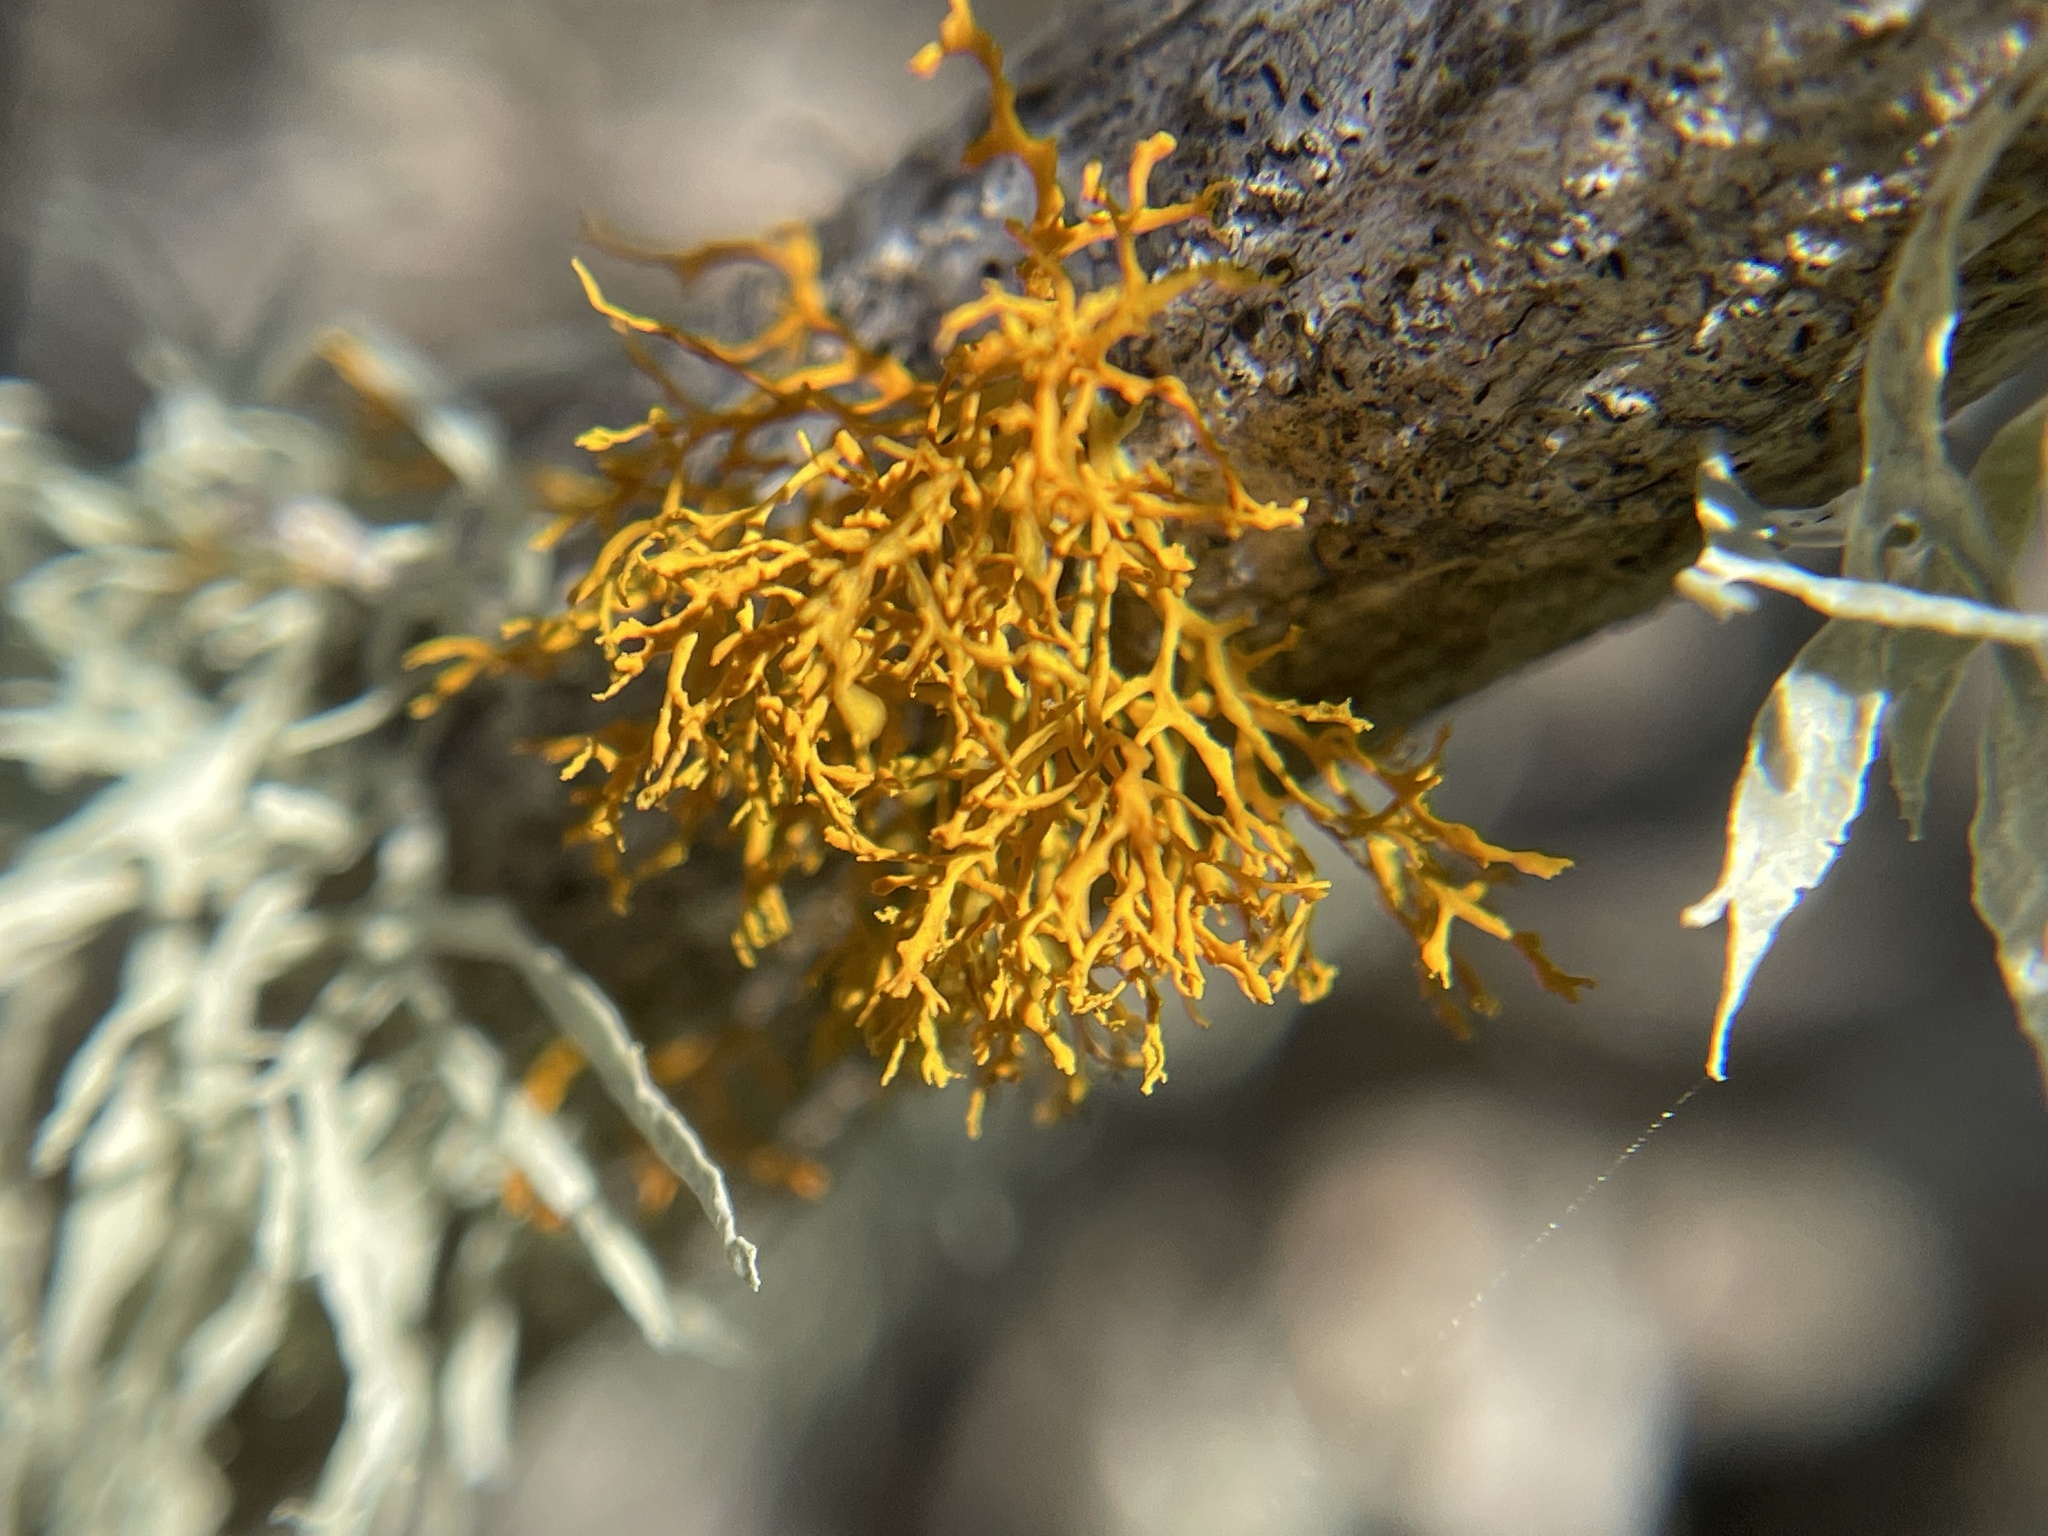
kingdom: Fungi
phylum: Ascomycota
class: Lecanoromycetes
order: Teloschistales
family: Teloschistaceae
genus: Massjukiella
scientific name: Massjukiella pollinarioides
